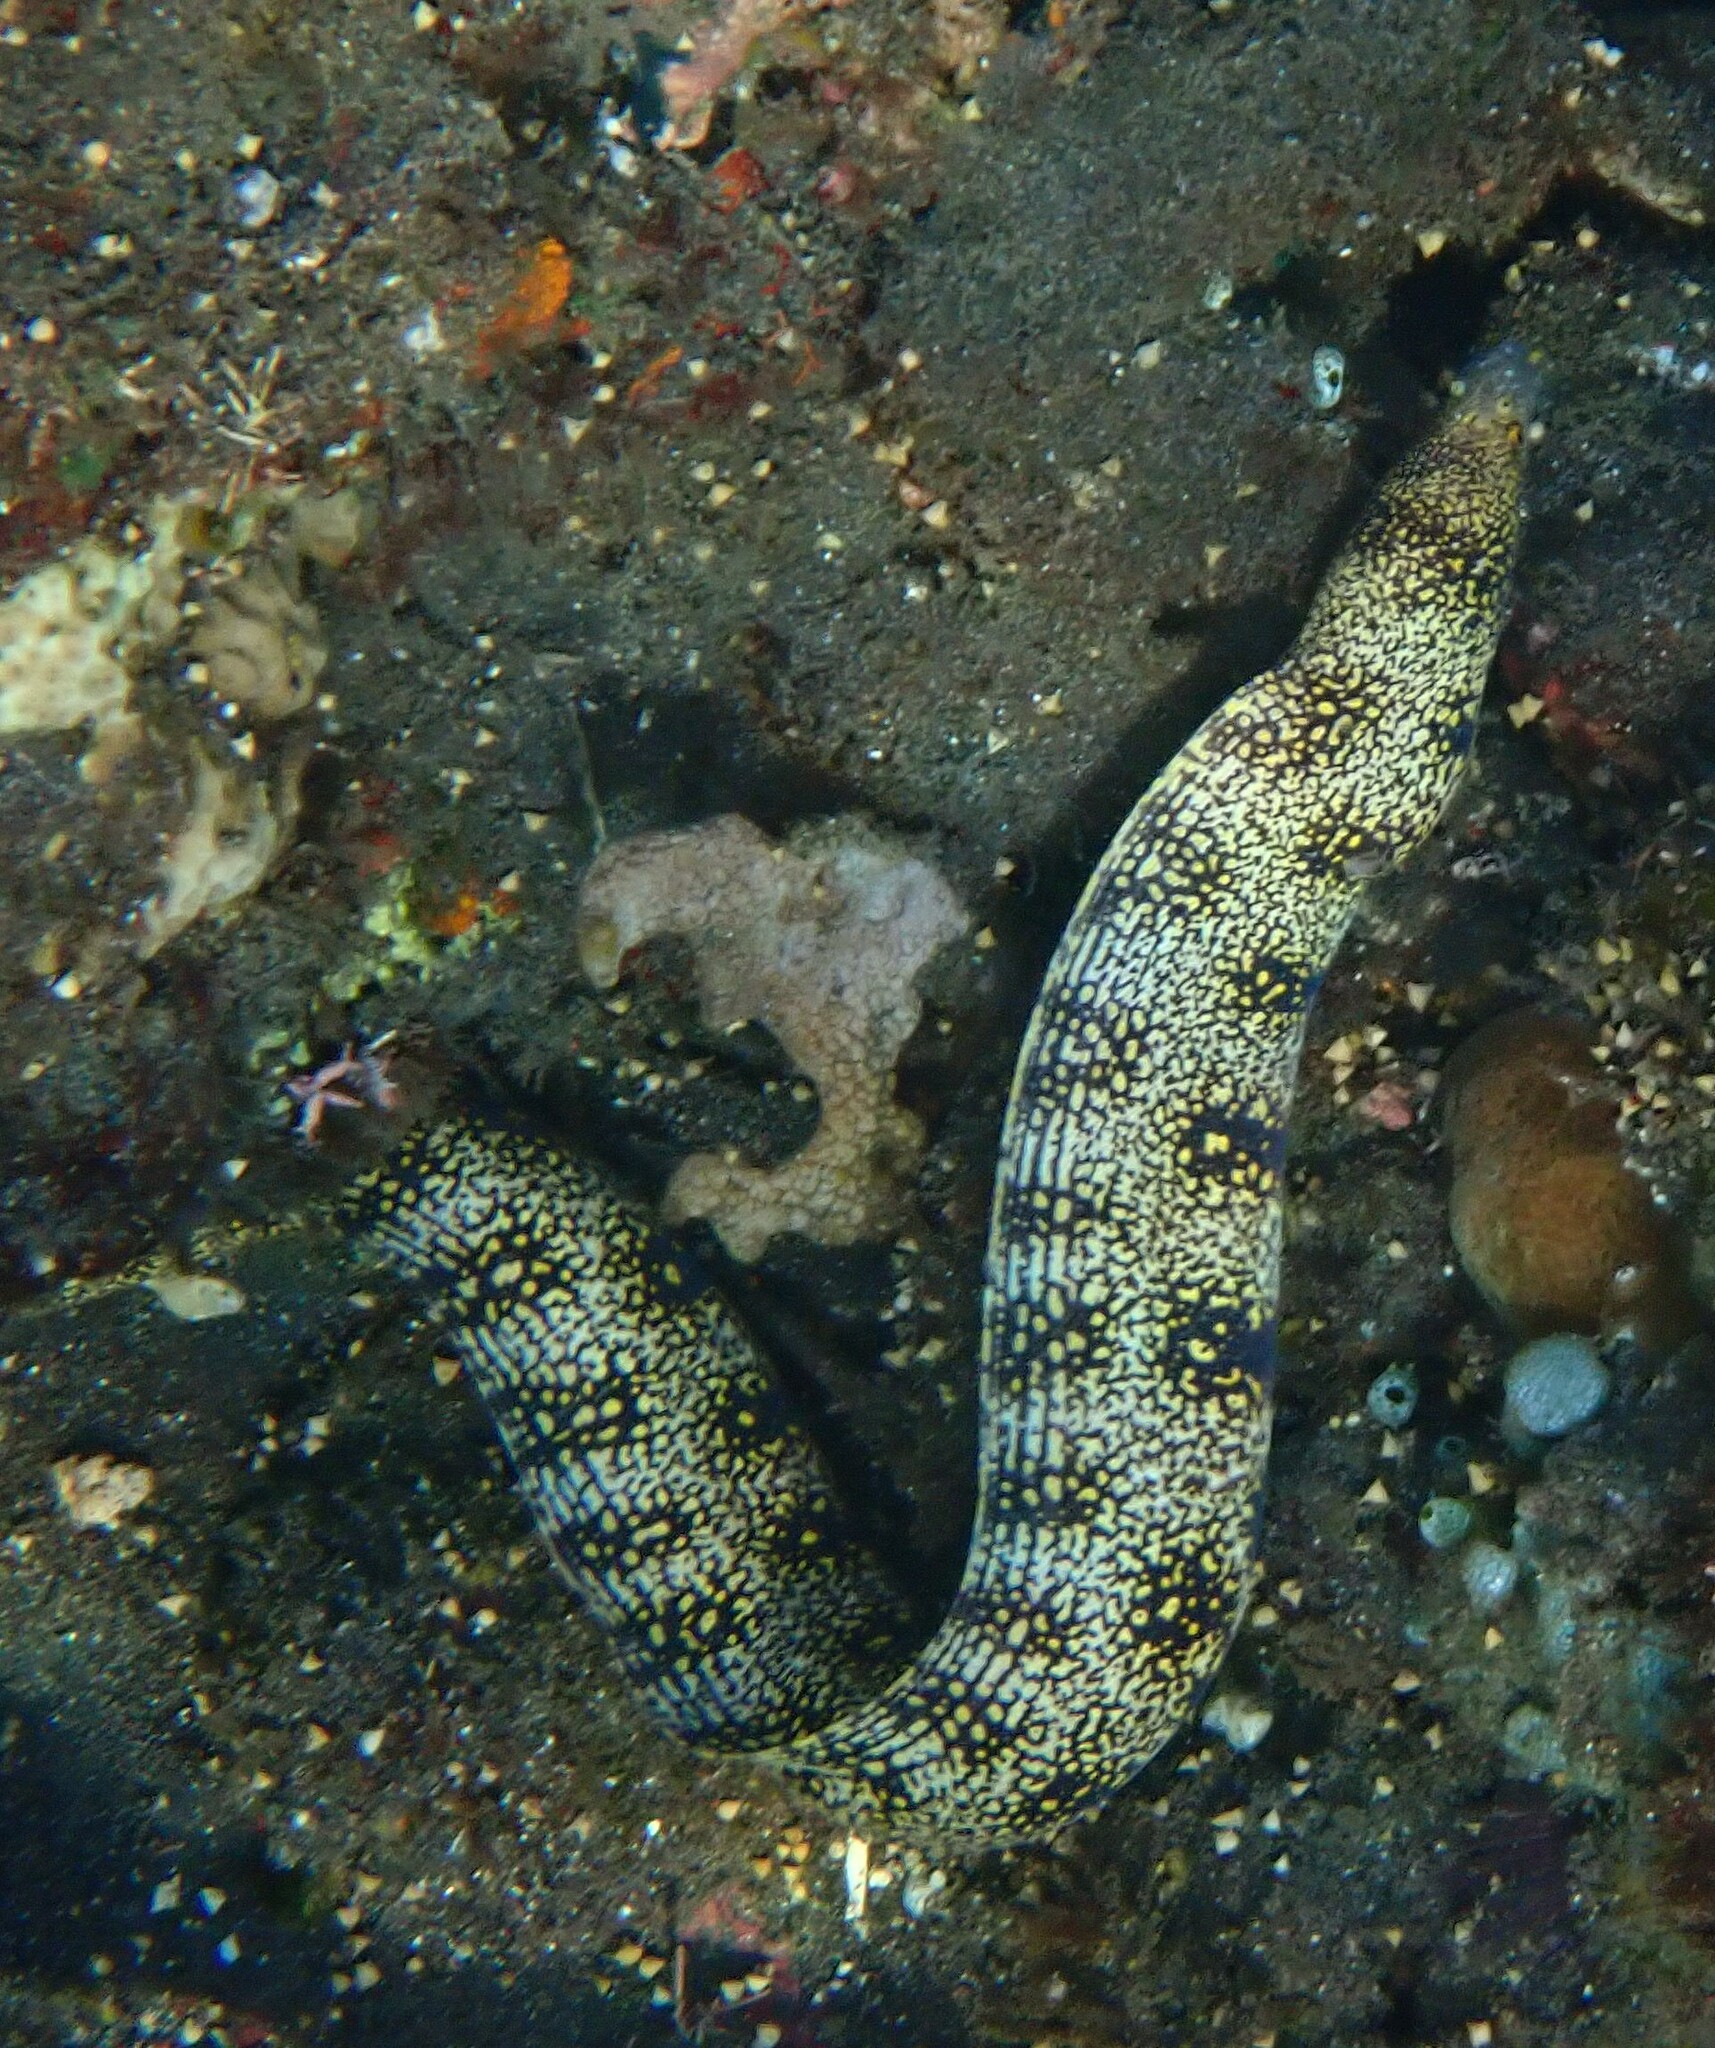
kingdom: Animalia
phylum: Chordata
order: Anguilliformes
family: Muraenidae
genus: Echidna
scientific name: Echidna nebulosa
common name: Snowflake moray
